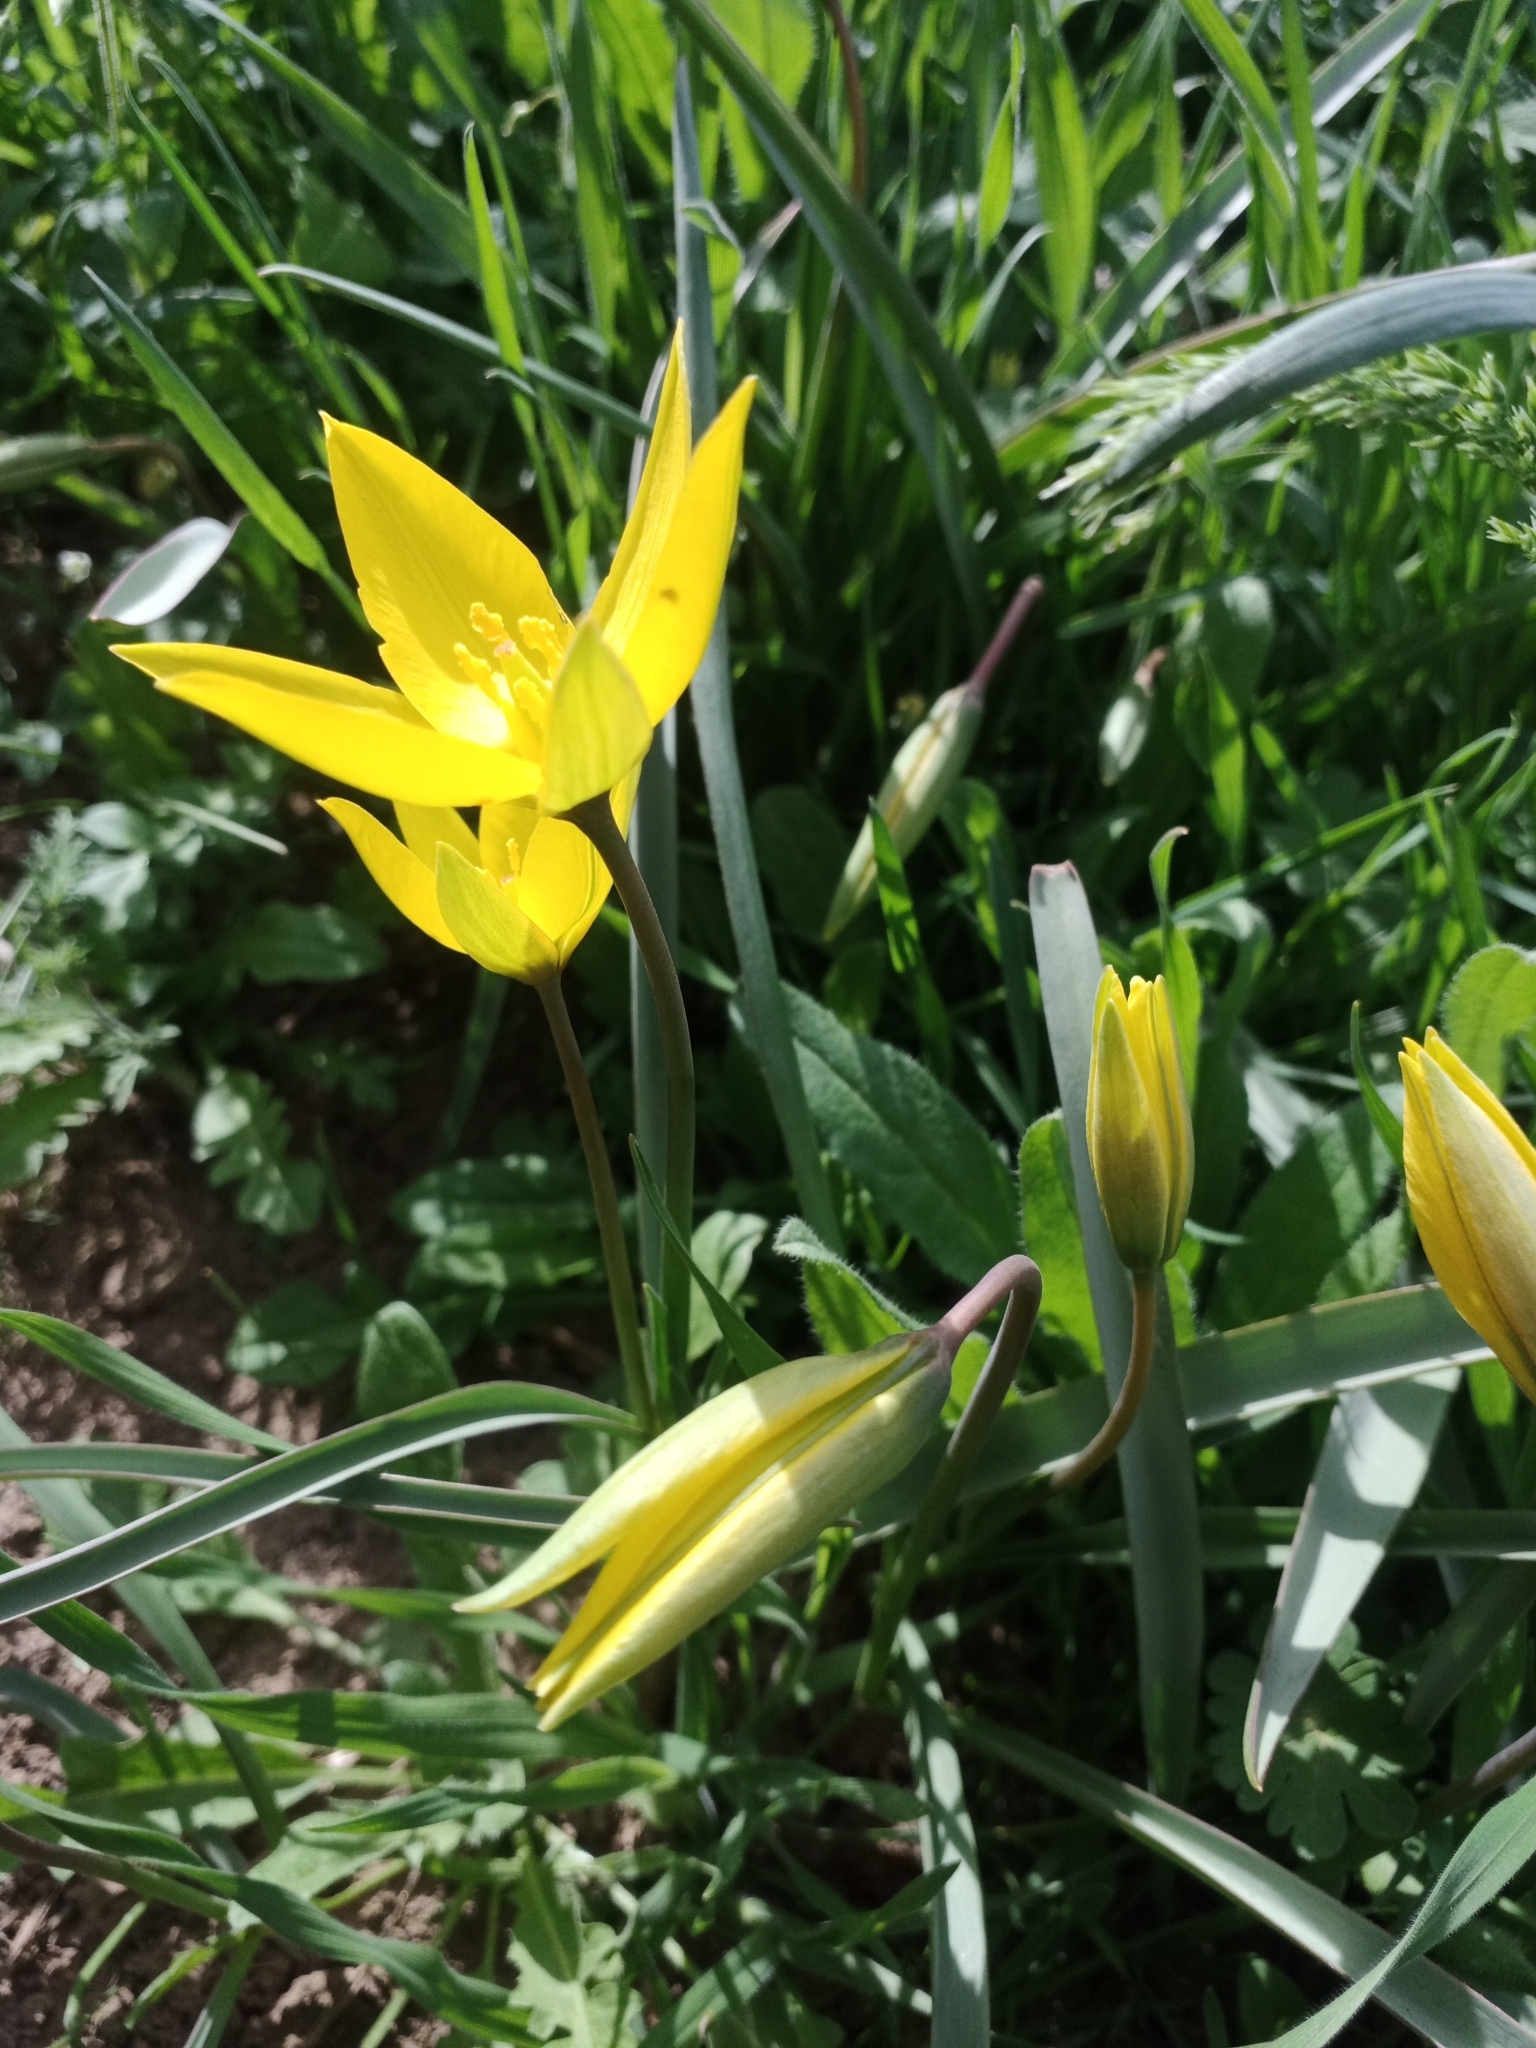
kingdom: Plantae
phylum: Tracheophyta
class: Liliopsida
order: Liliales
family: Liliaceae
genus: Tulipa
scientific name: Tulipa sylvestris
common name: Wild tulip
